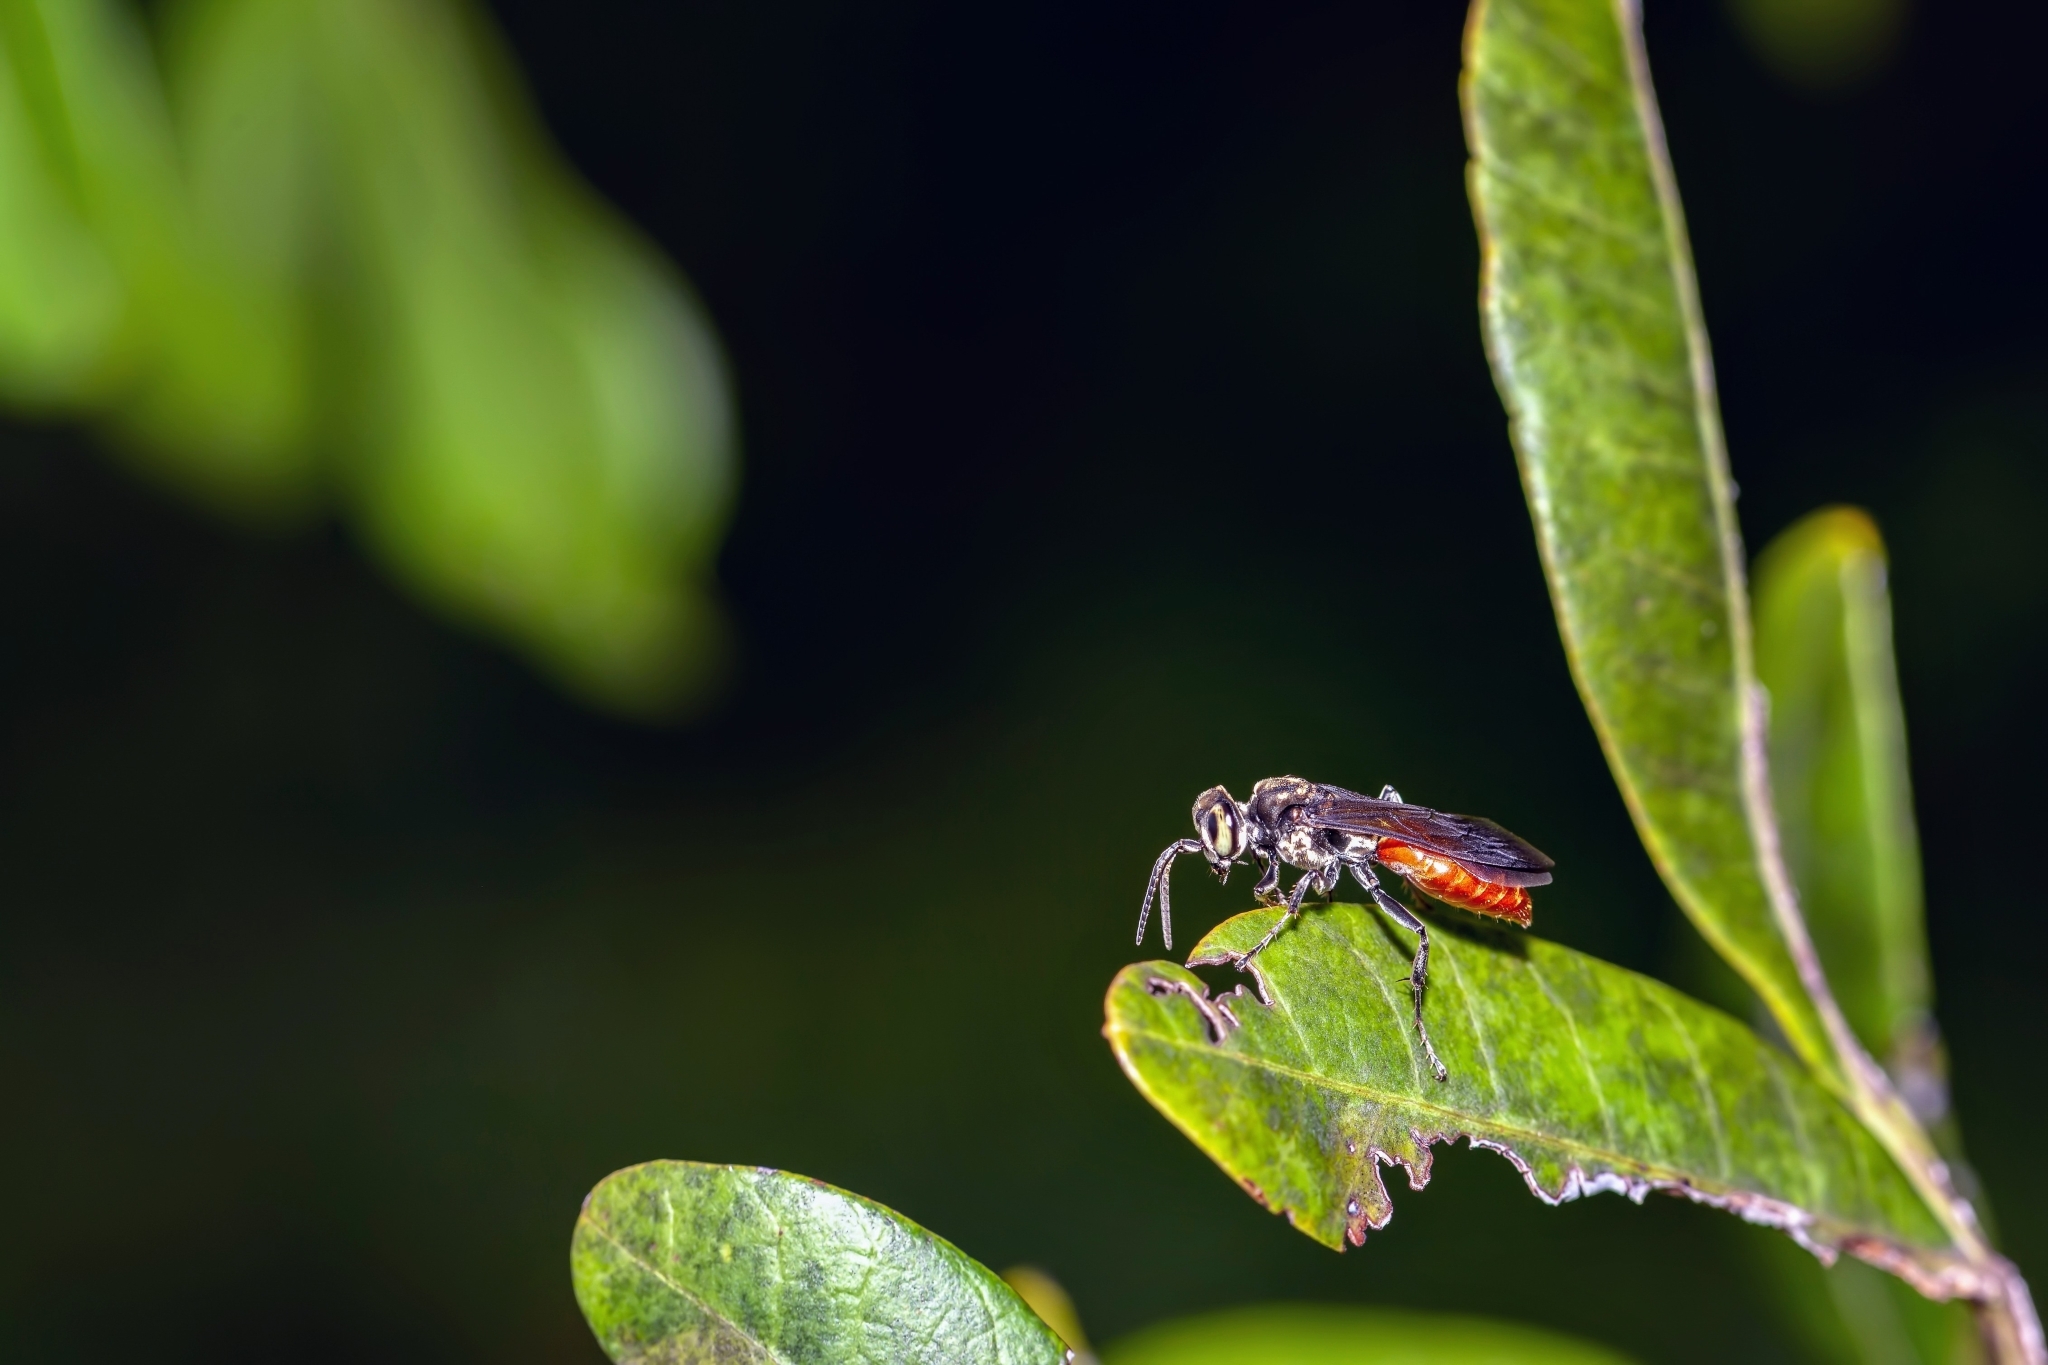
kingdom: Animalia
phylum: Arthropoda
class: Insecta
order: Hymenoptera
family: Crabronidae
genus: Larra
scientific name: Larra bicolor
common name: Wasp
